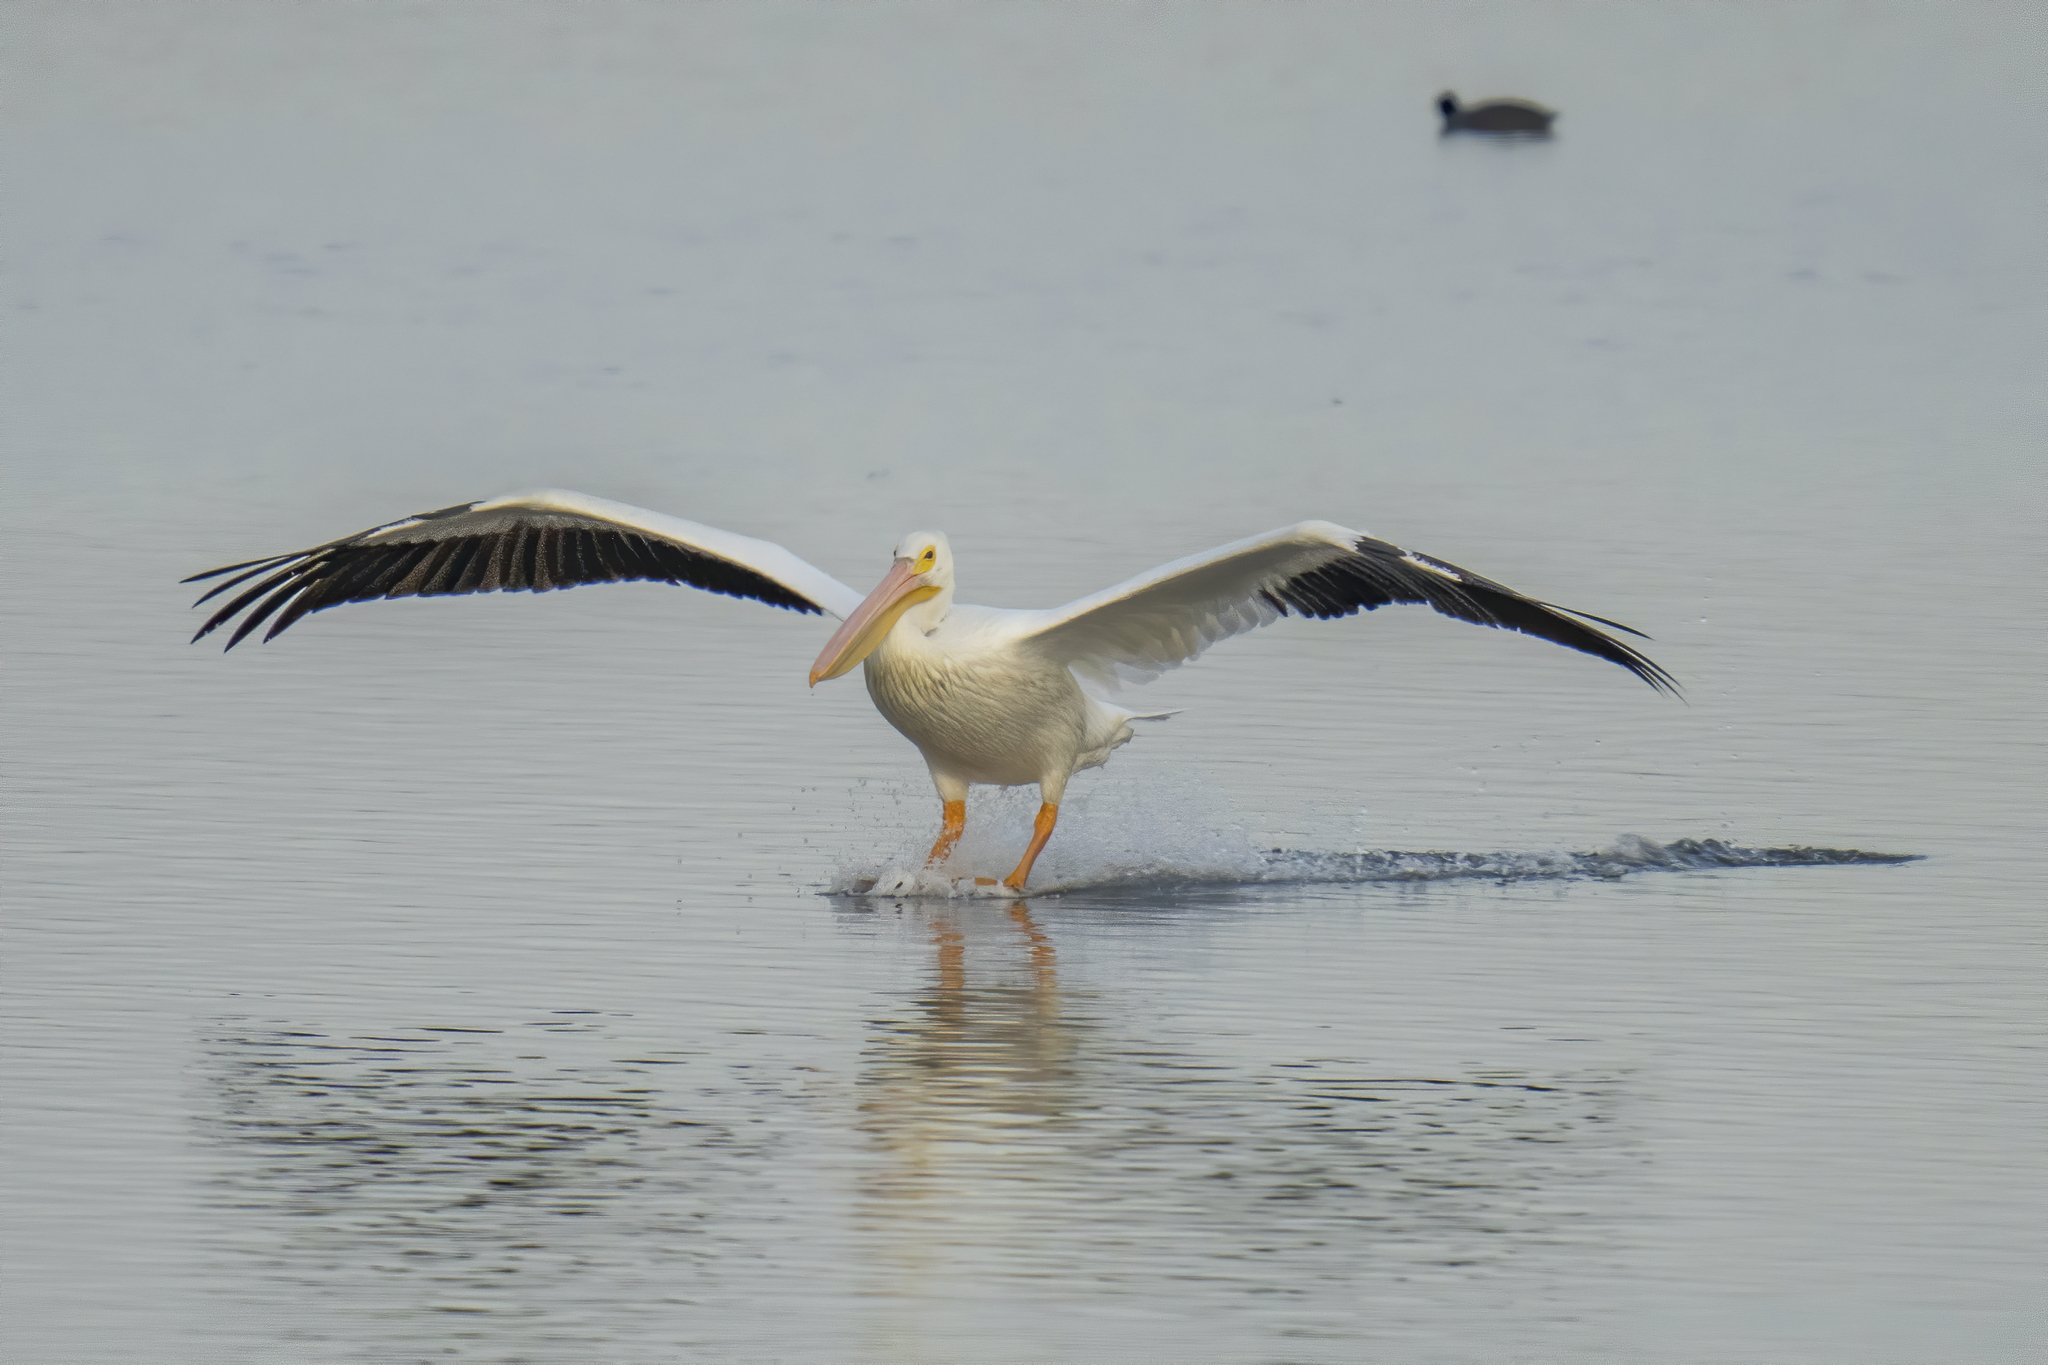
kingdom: Animalia
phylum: Chordata
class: Aves
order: Pelecaniformes
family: Pelecanidae
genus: Pelecanus
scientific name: Pelecanus erythrorhynchos
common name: American white pelican
